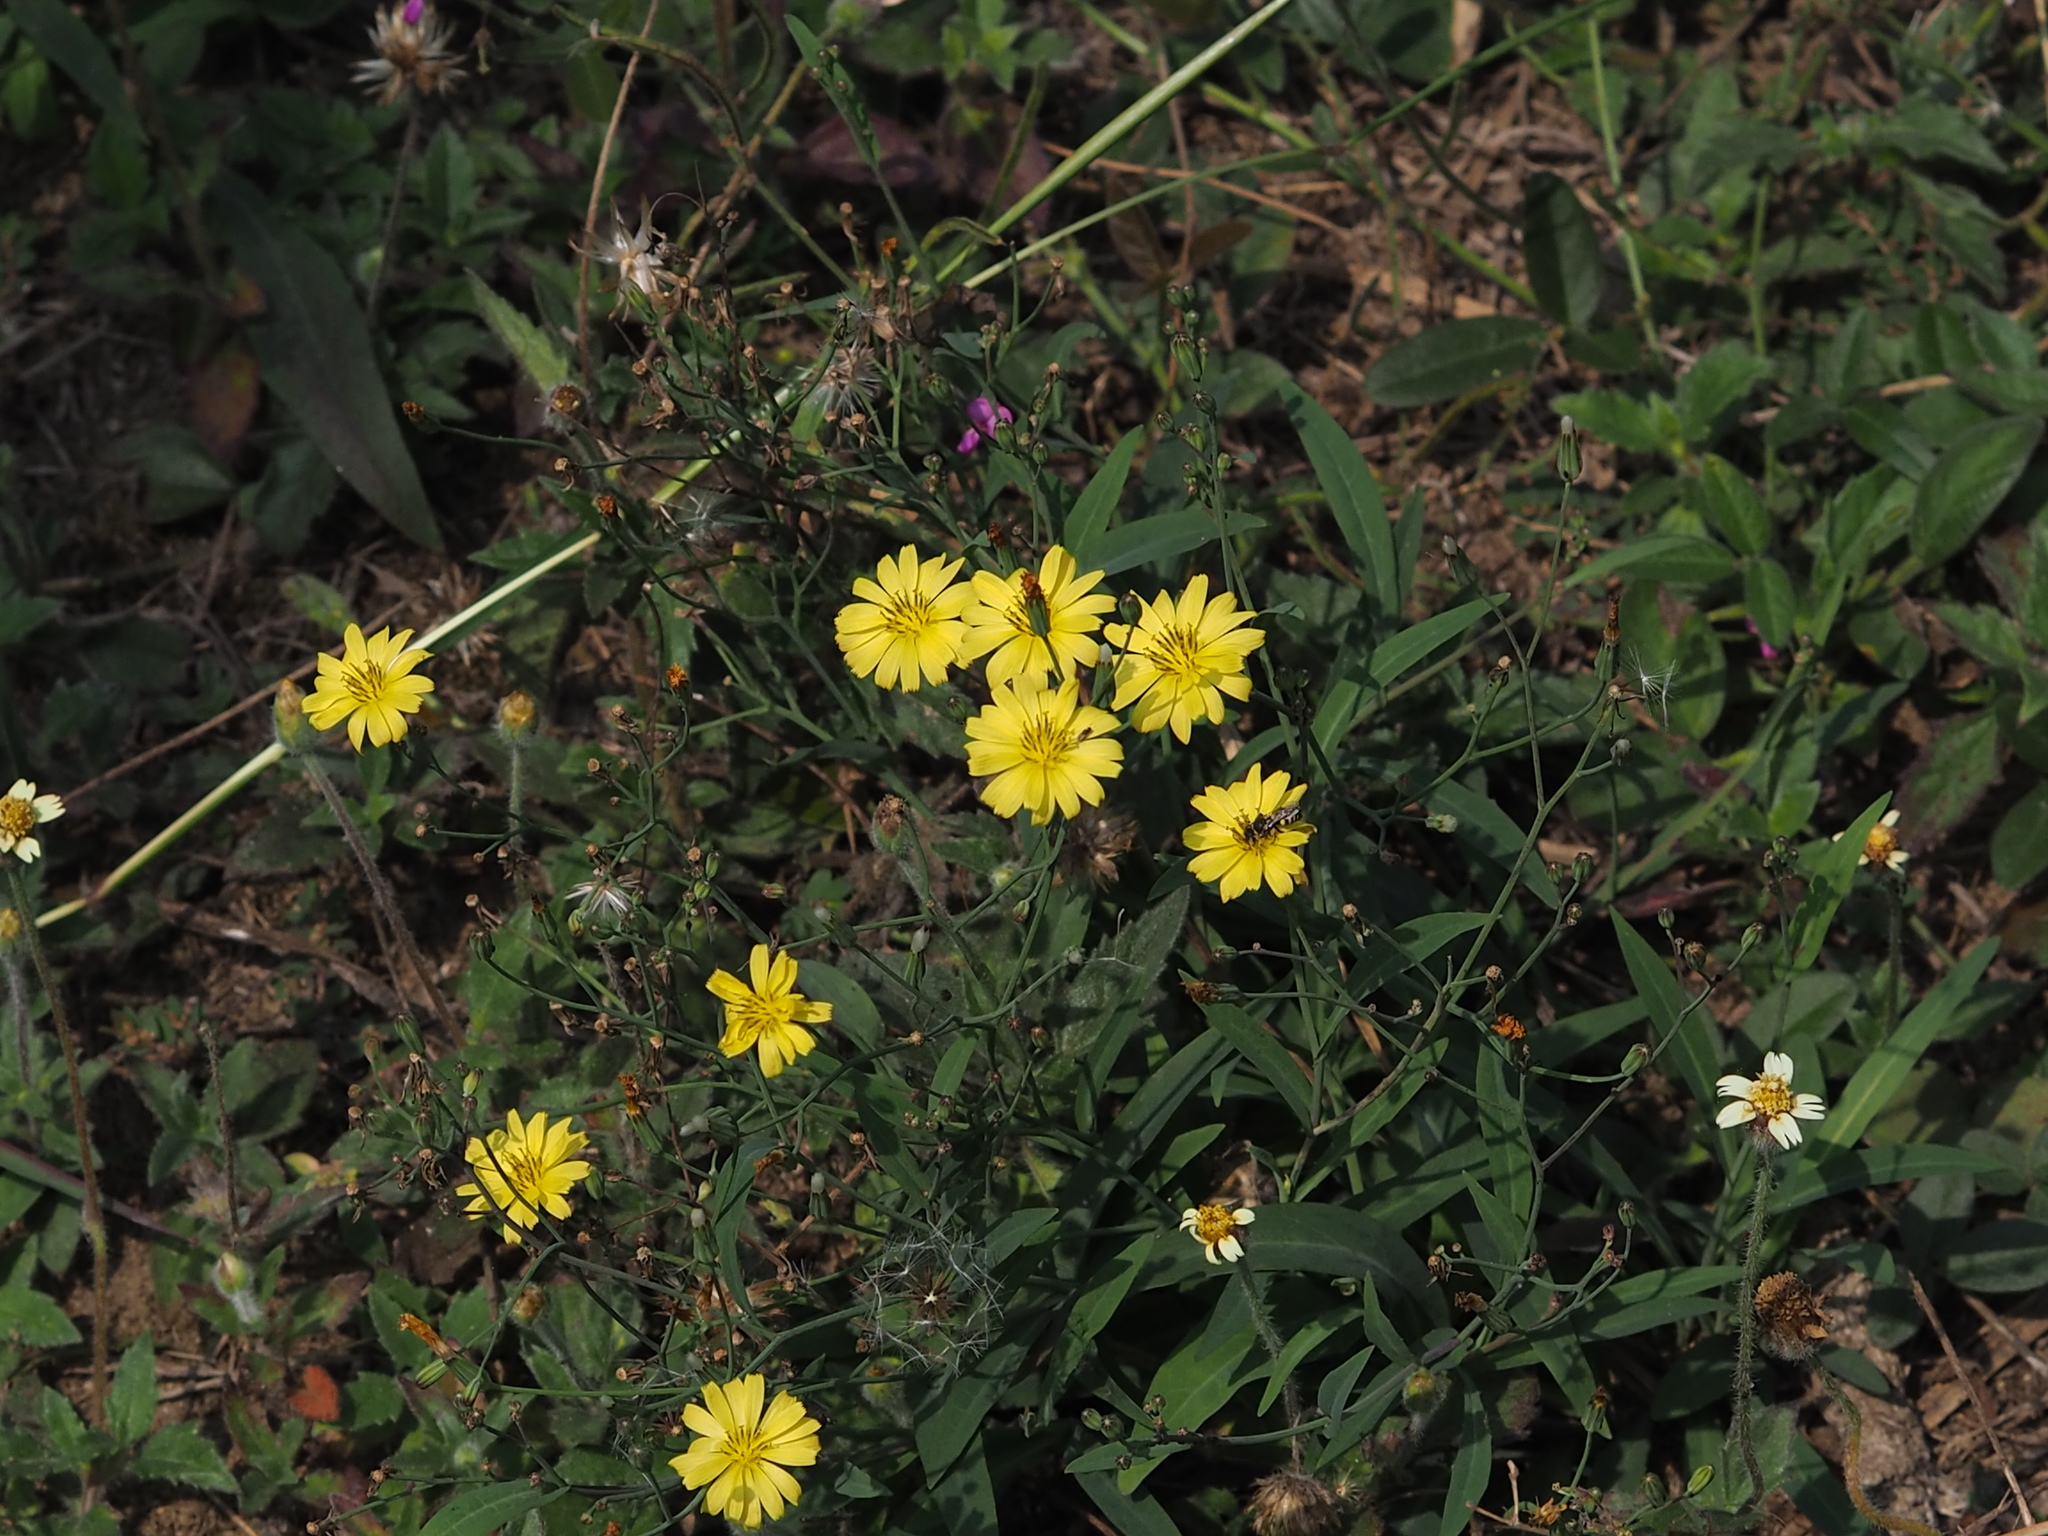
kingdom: Plantae
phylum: Tracheophyta
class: Magnoliopsida
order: Asterales
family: Asteraceae
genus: Ixeris
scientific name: Ixeris chinensis
